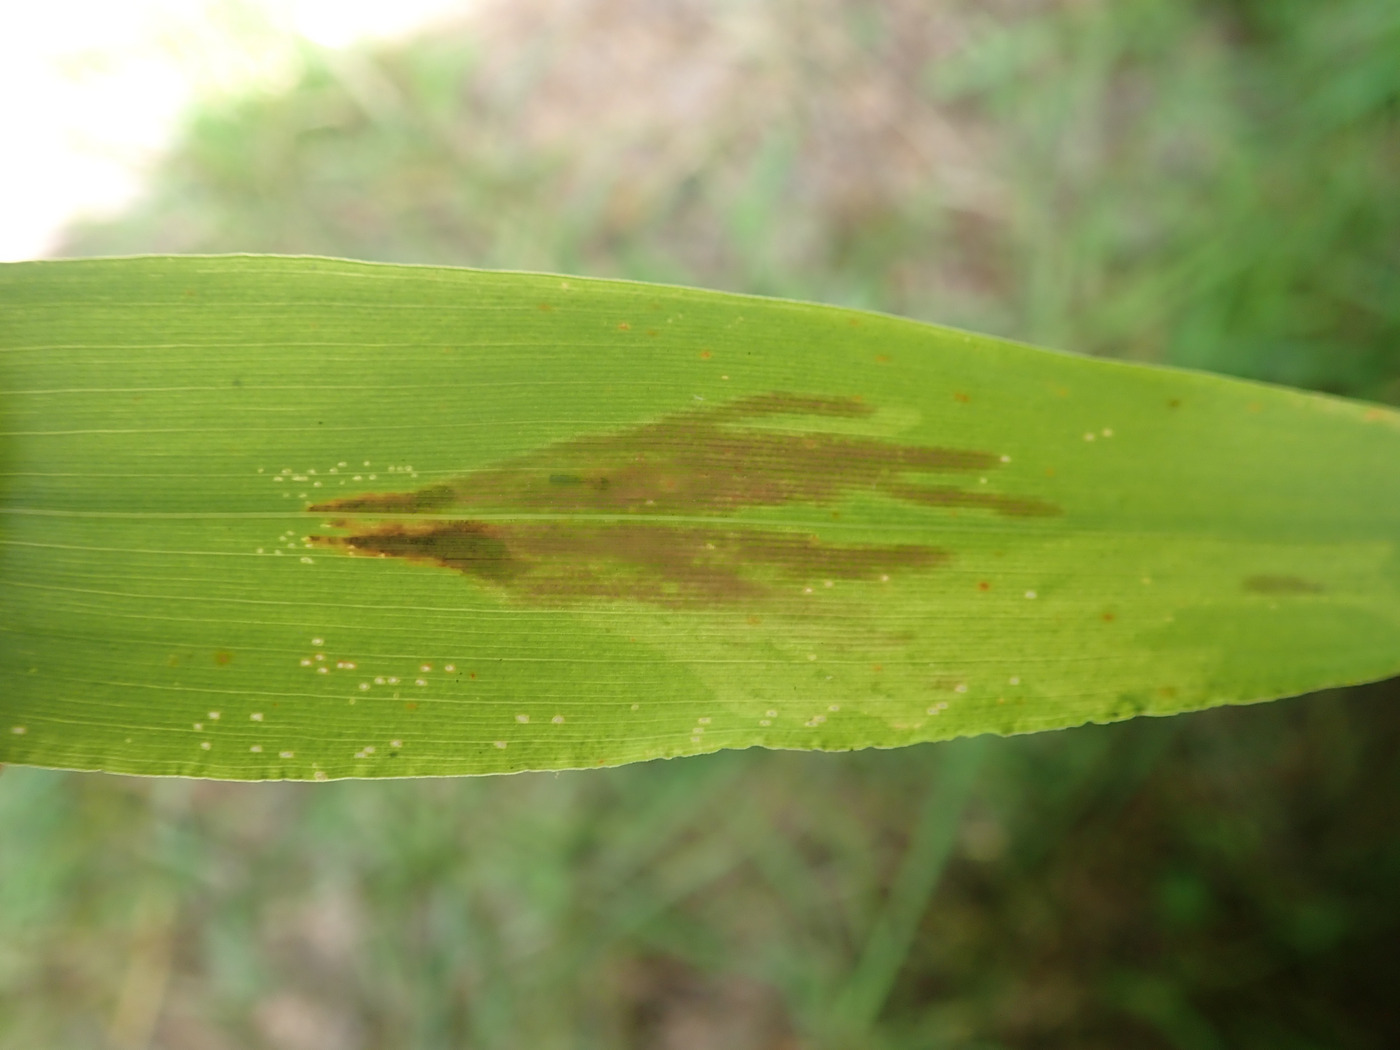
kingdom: Animalia
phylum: Arthropoda
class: Insecta
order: Diptera
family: Agromyzidae
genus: Cerodontha
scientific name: Cerodontha angulata
